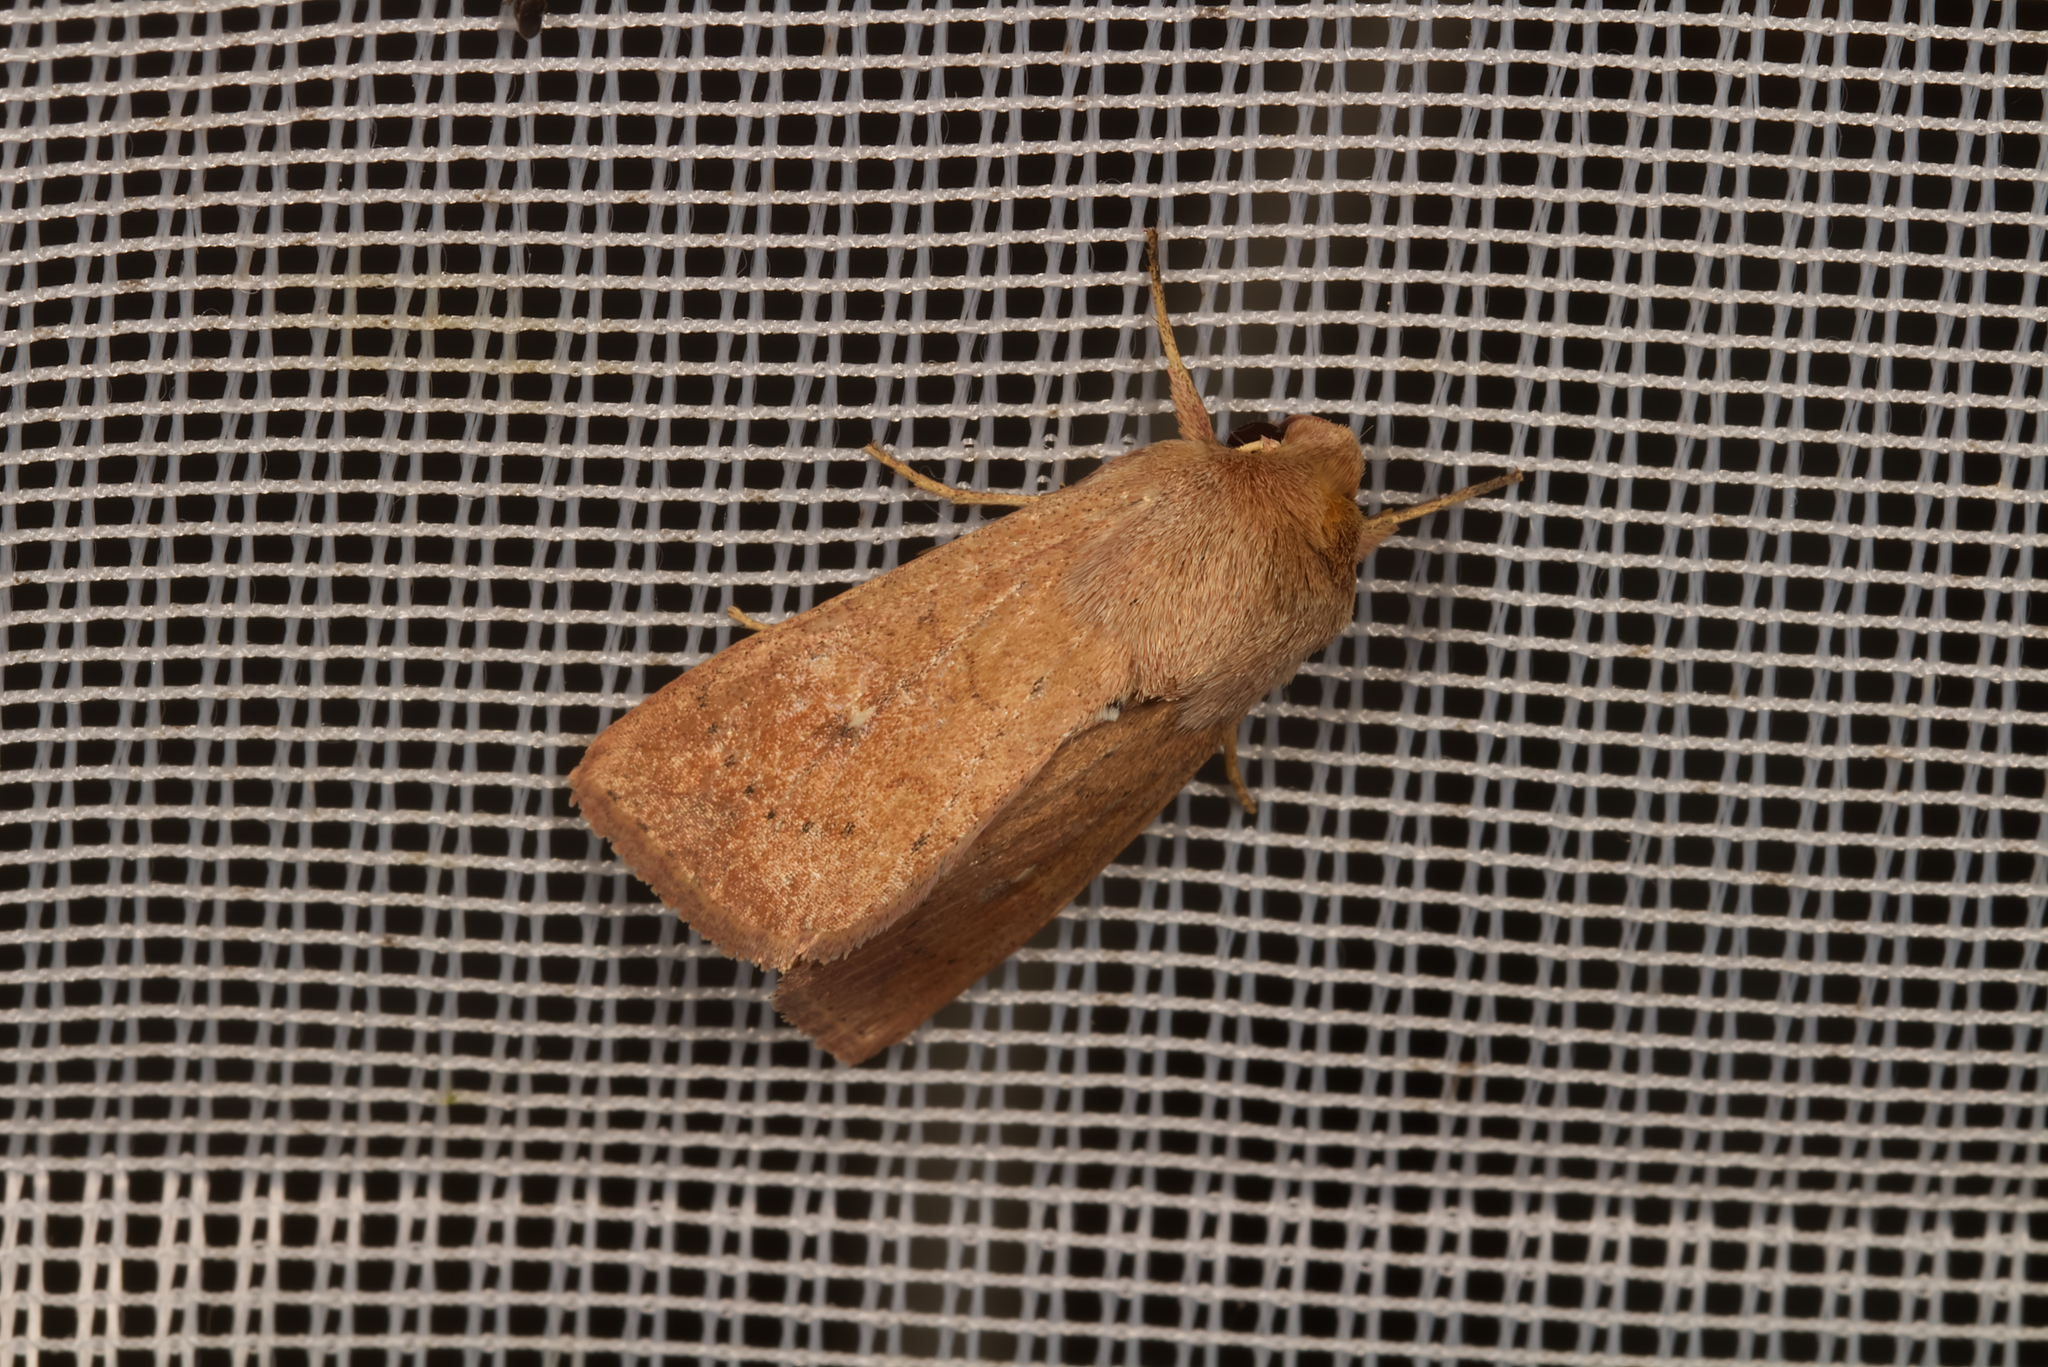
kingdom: Animalia
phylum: Arthropoda
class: Insecta
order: Lepidoptera
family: Noctuidae
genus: Mythimna
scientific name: Mythimna ferrago
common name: Clay
